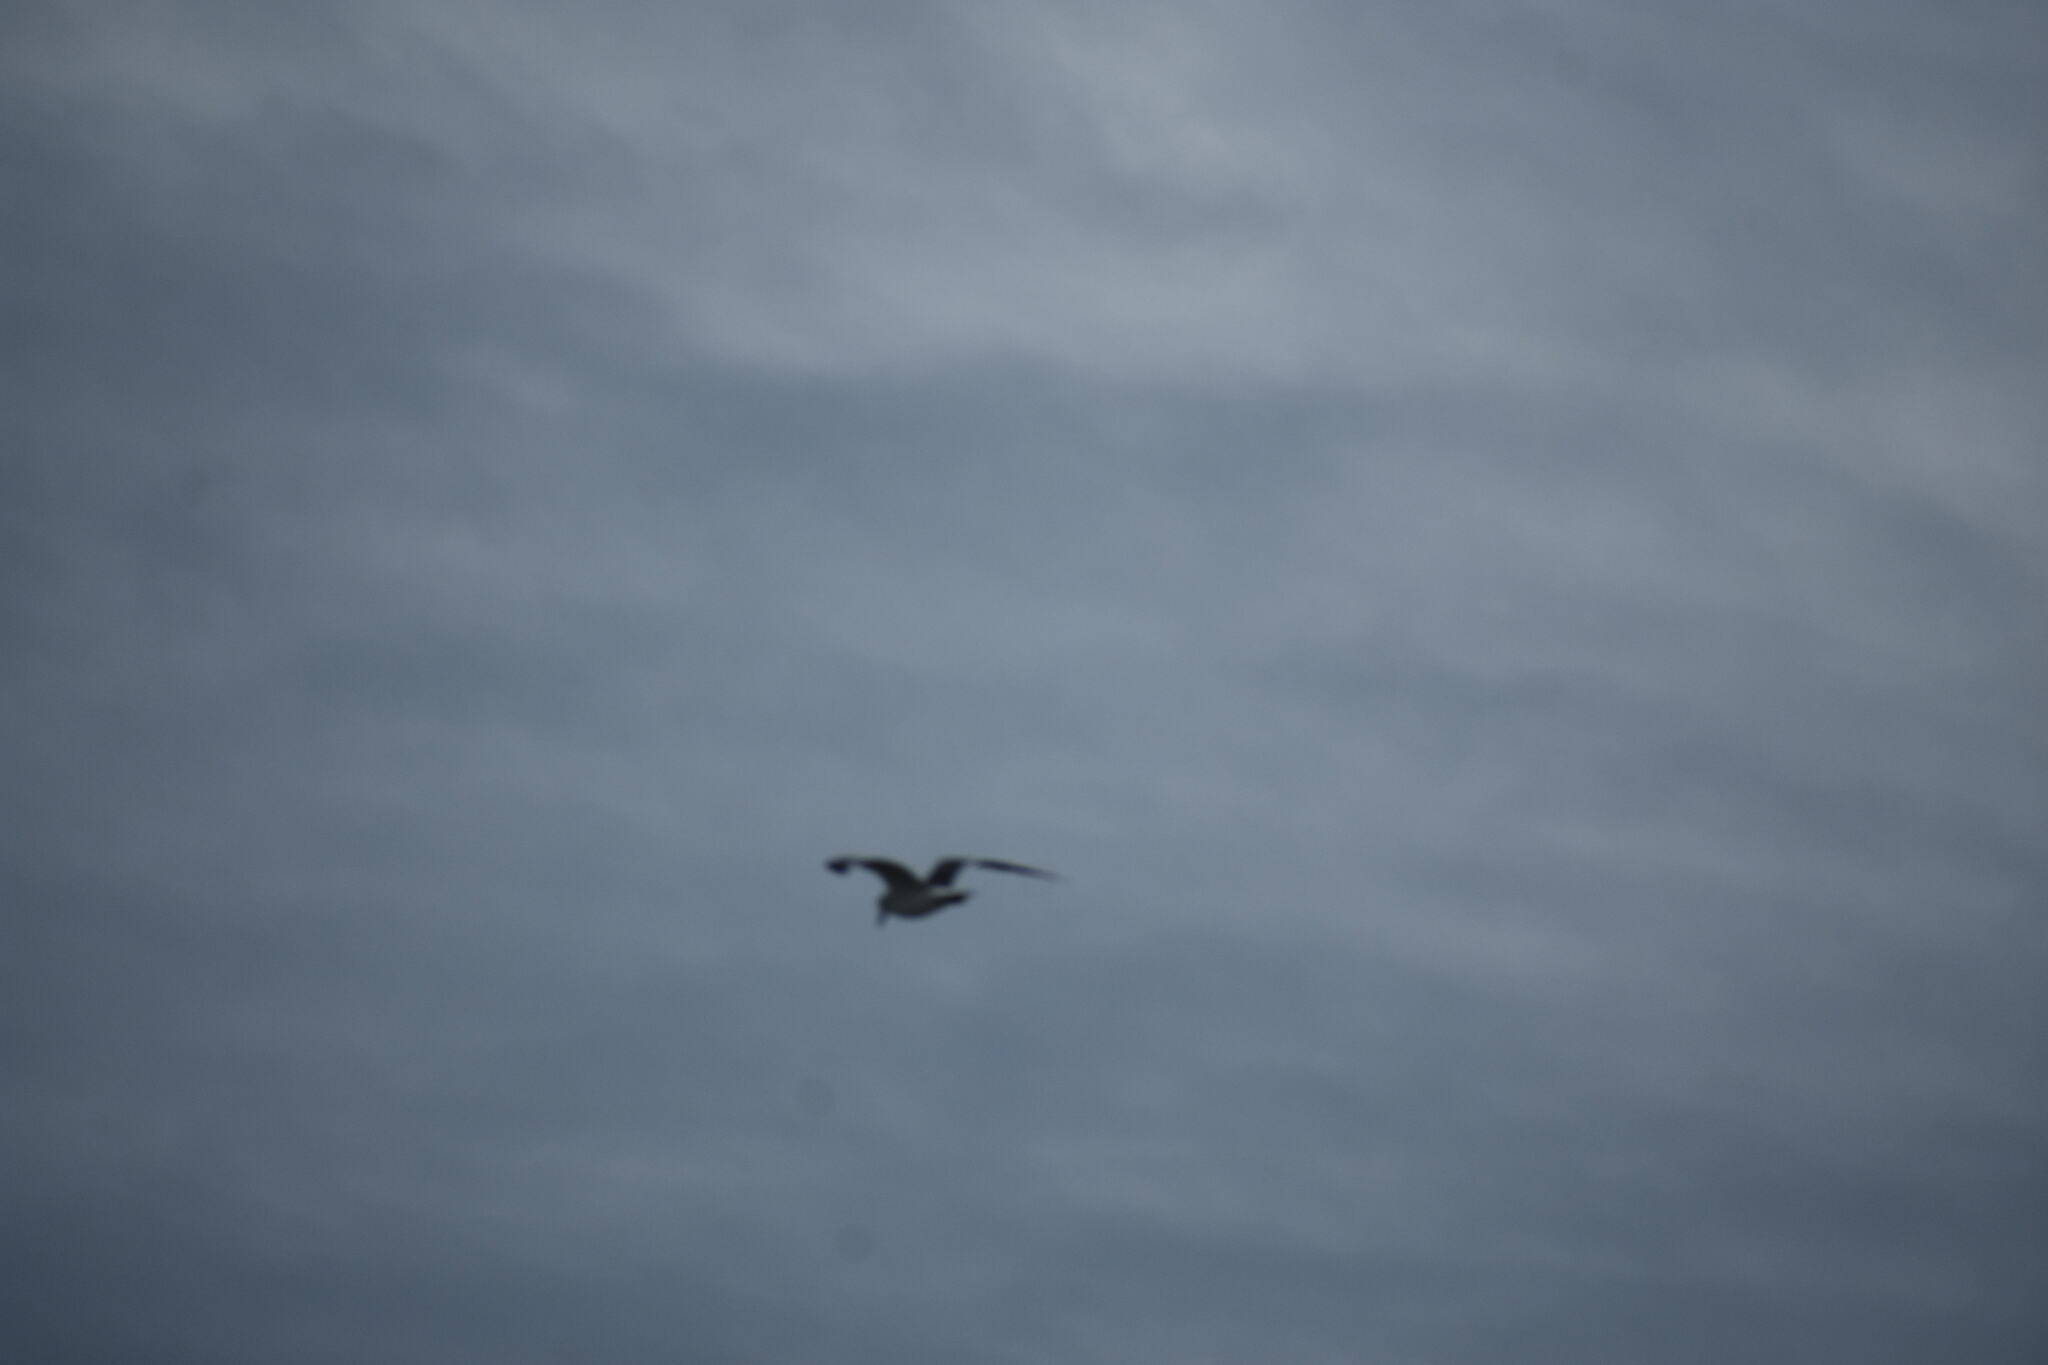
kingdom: Animalia
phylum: Chordata
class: Aves
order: Charadriiformes
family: Laridae
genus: Leucophaeus
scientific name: Leucophaeus atricilla
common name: Laughing gull
